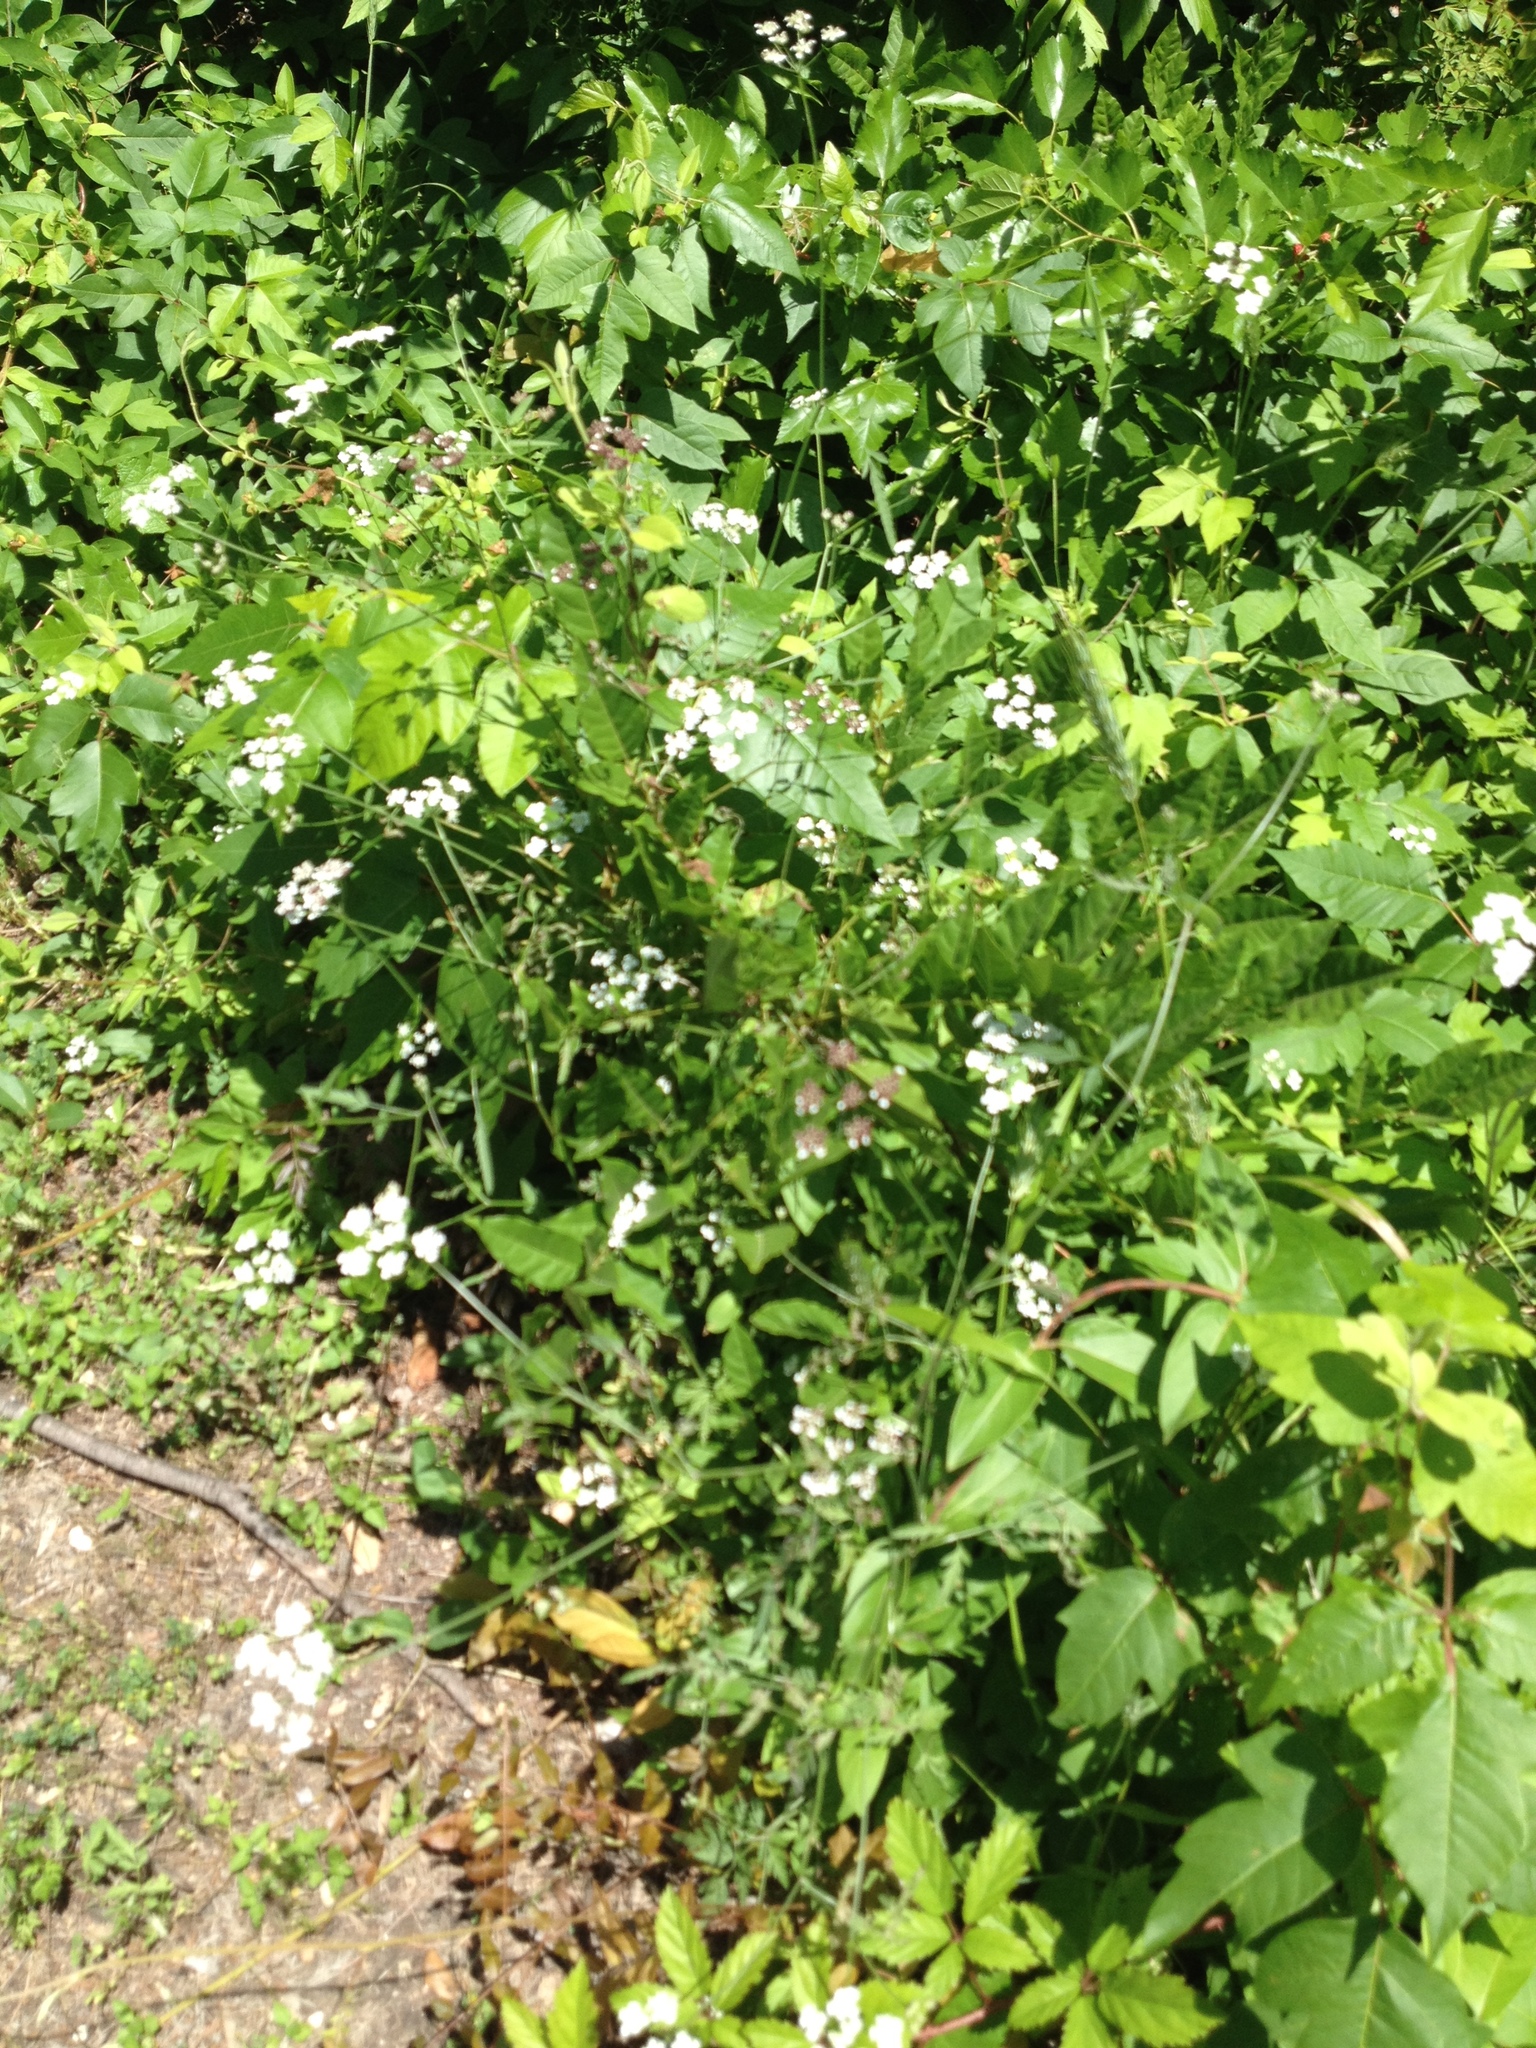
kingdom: Plantae
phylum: Tracheophyta
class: Magnoliopsida
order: Apiales
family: Apiaceae
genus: Torilis
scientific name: Torilis arvensis
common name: Spreading hedge-parsley
